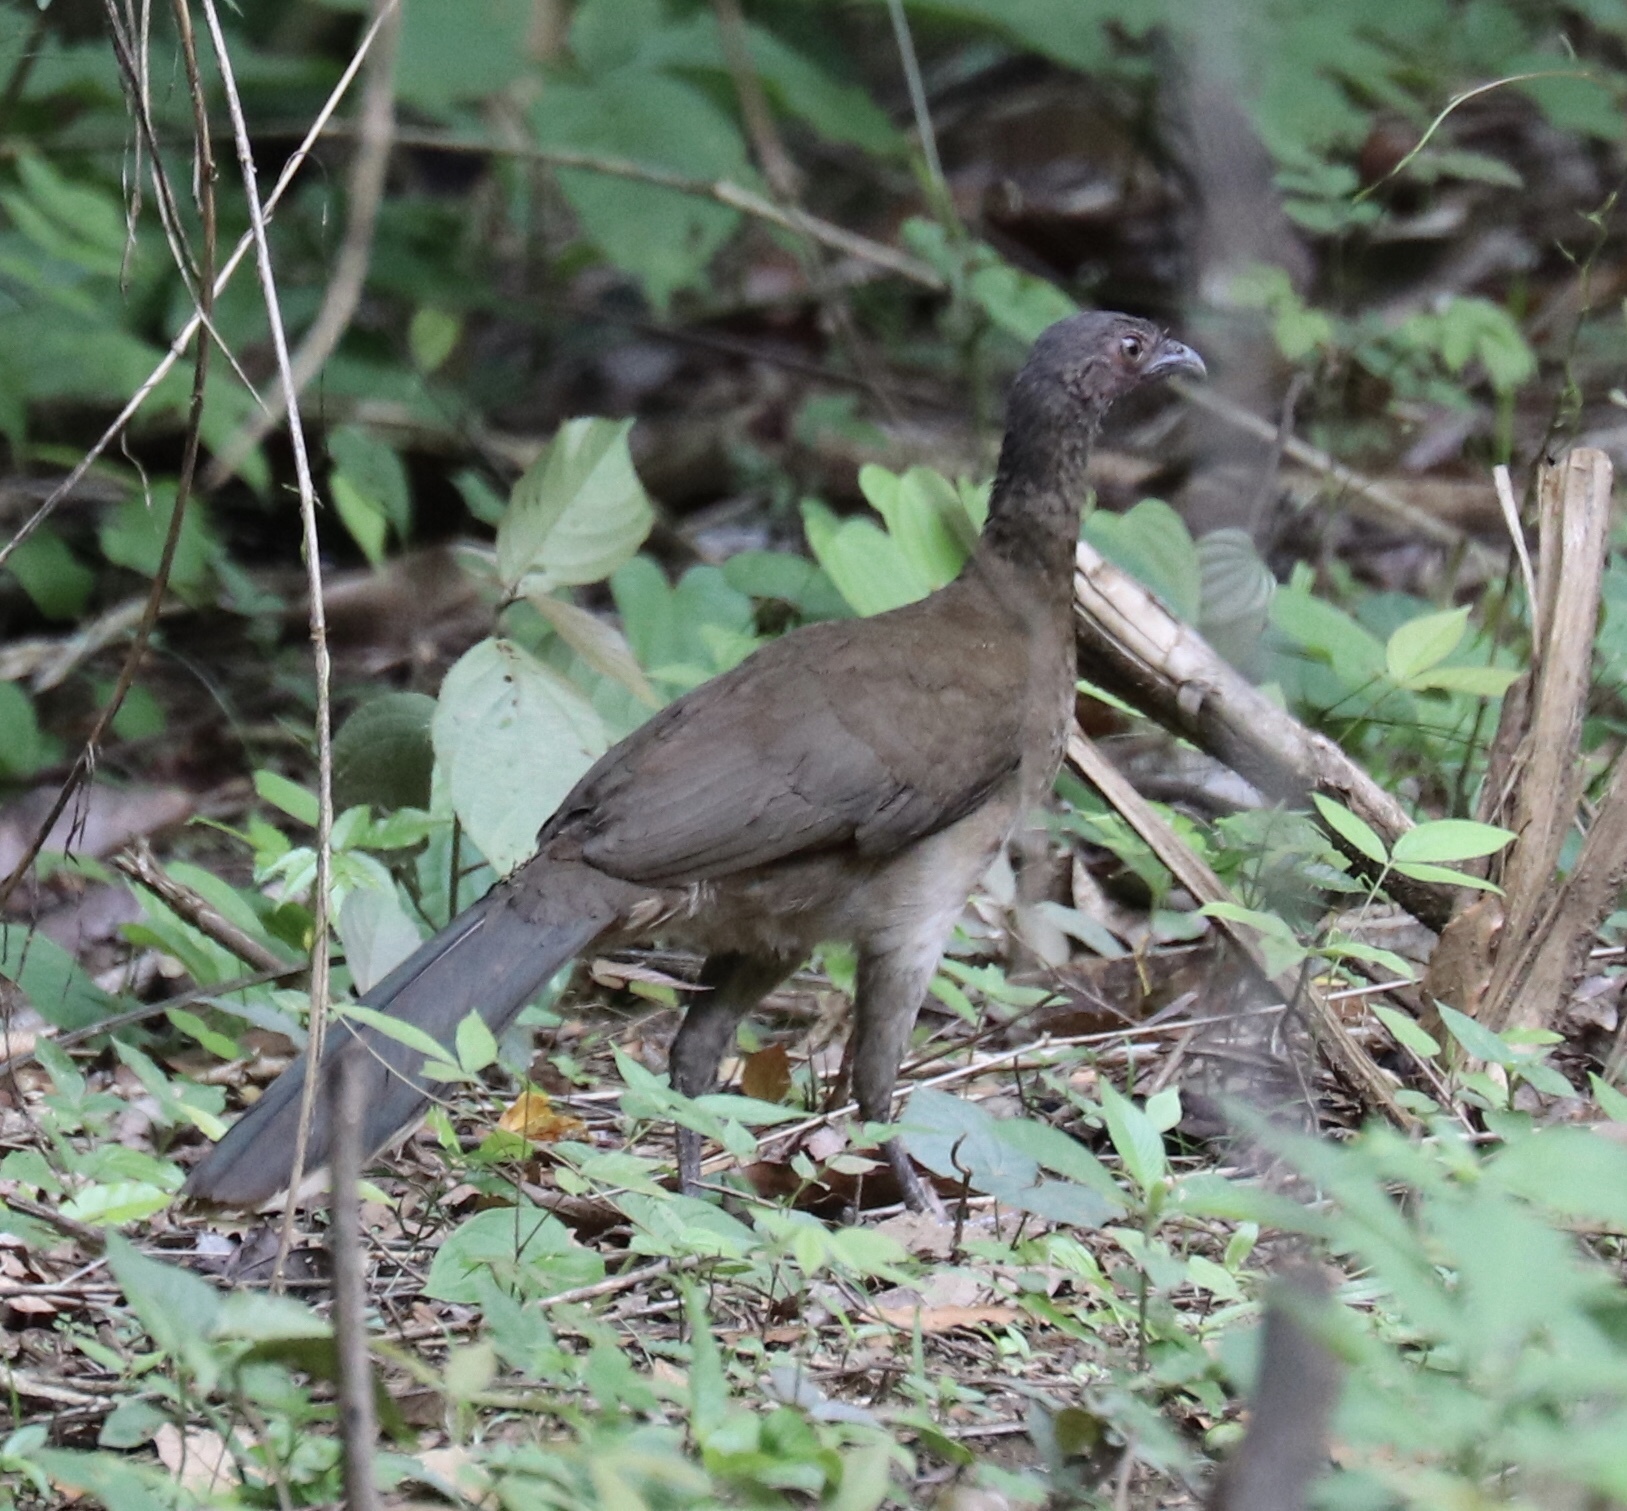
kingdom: Animalia
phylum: Chordata
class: Aves
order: Galliformes
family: Cracidae
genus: Ortalis
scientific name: Ortalis cinereiceps
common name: Grey-headed chachalaca
